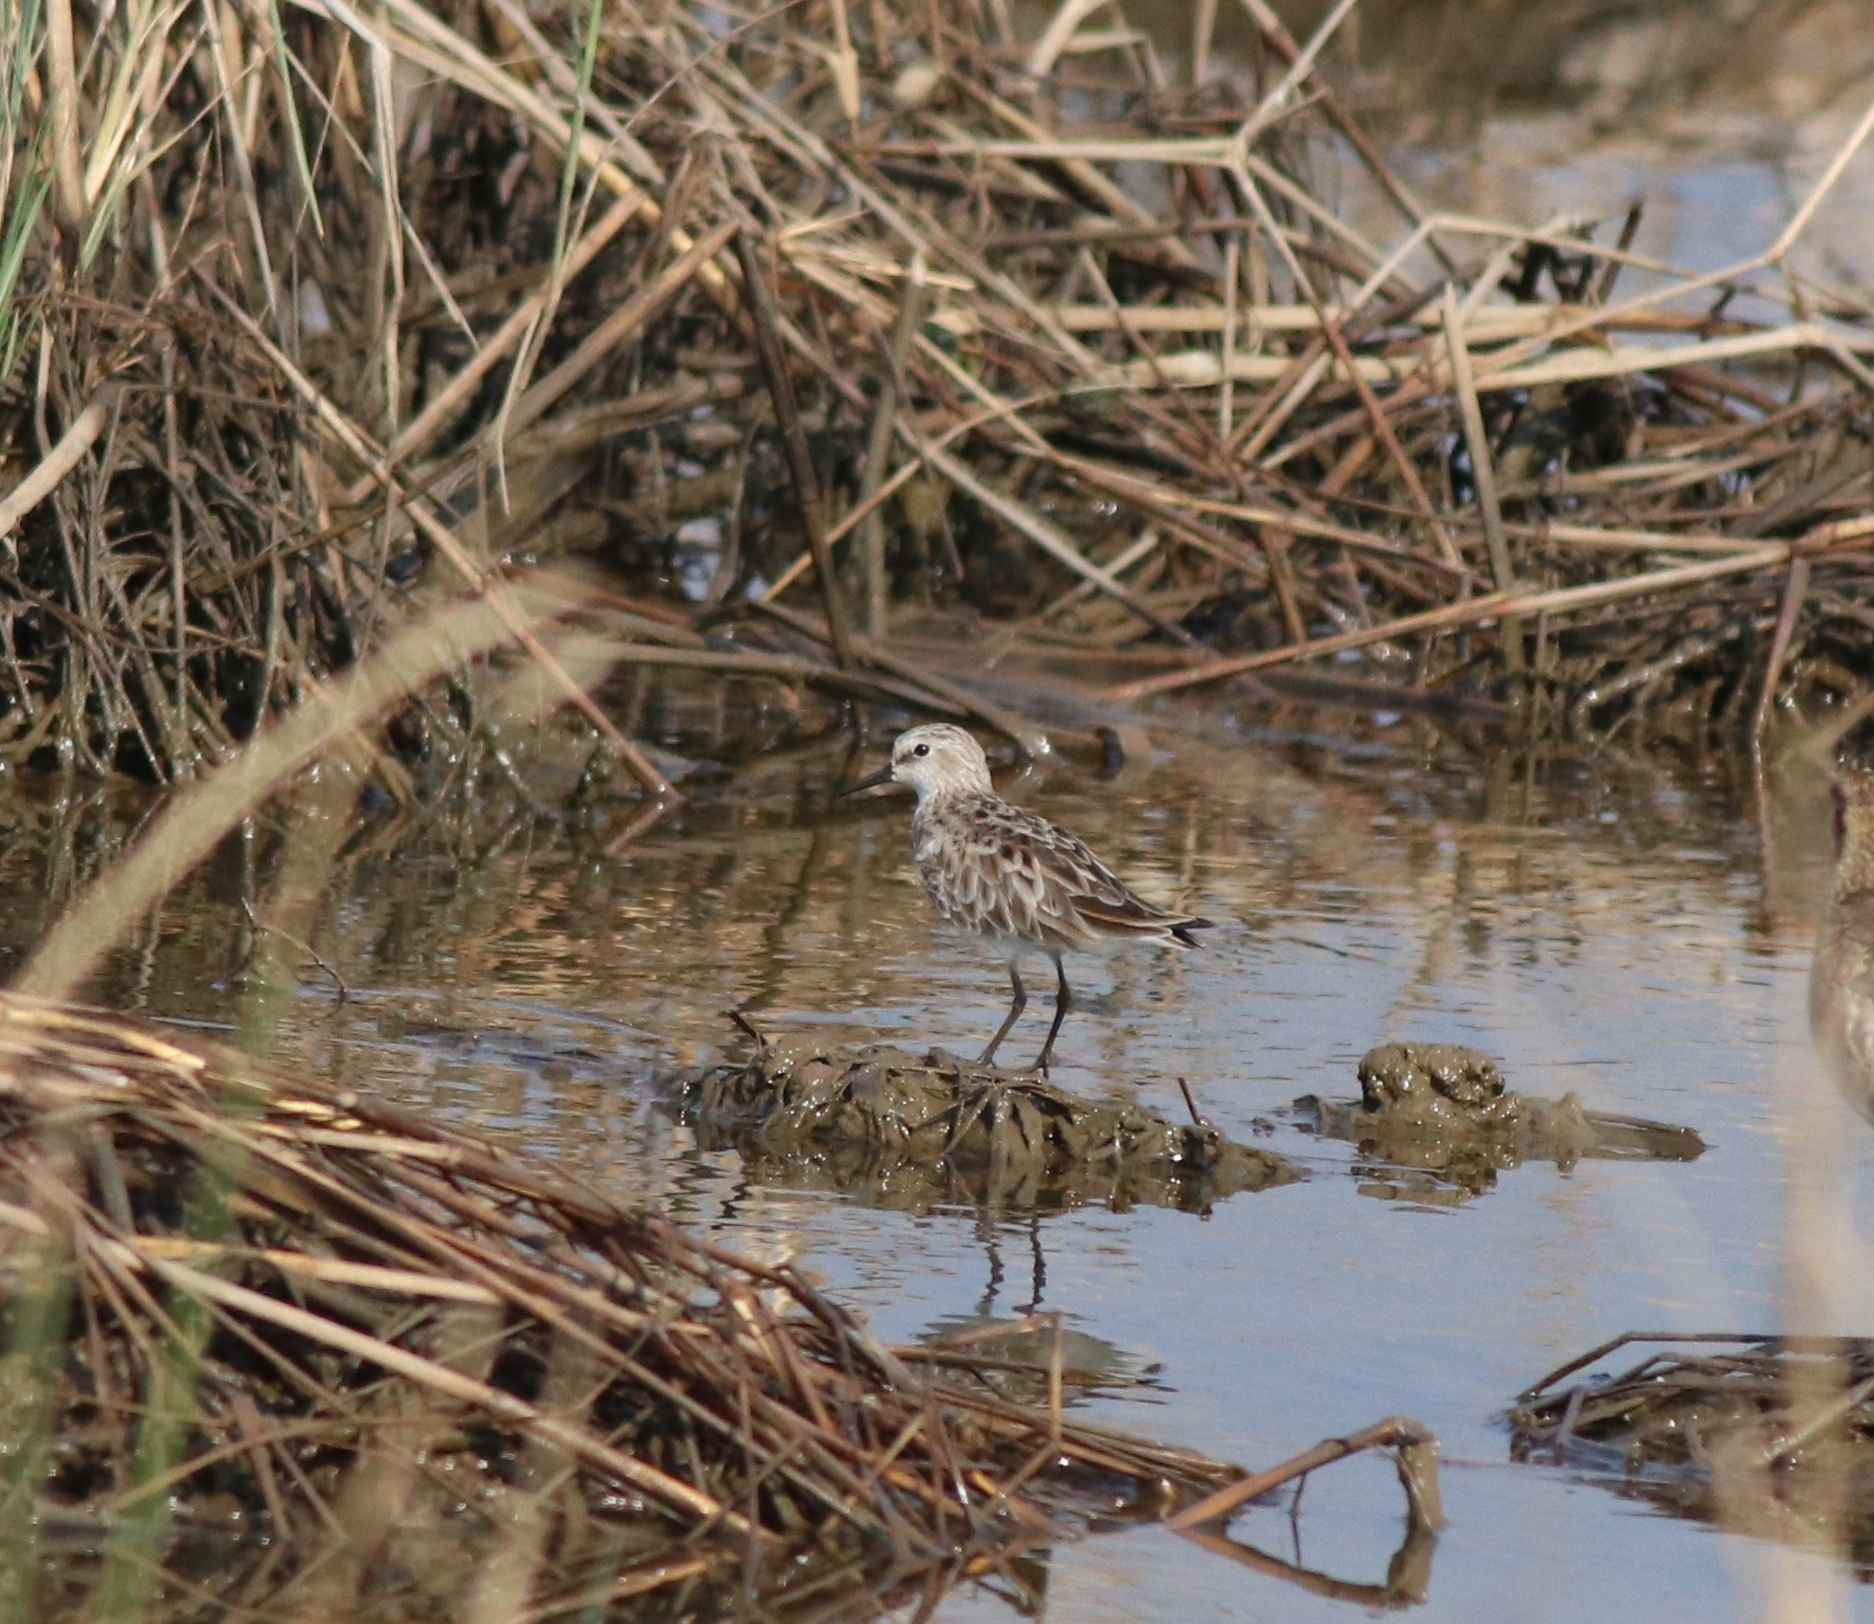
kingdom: Animalia
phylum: Chordata
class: Aves
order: Charadriiformes
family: Scolopacidae
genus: Calidris
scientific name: Calidris minuta
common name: Little stint
